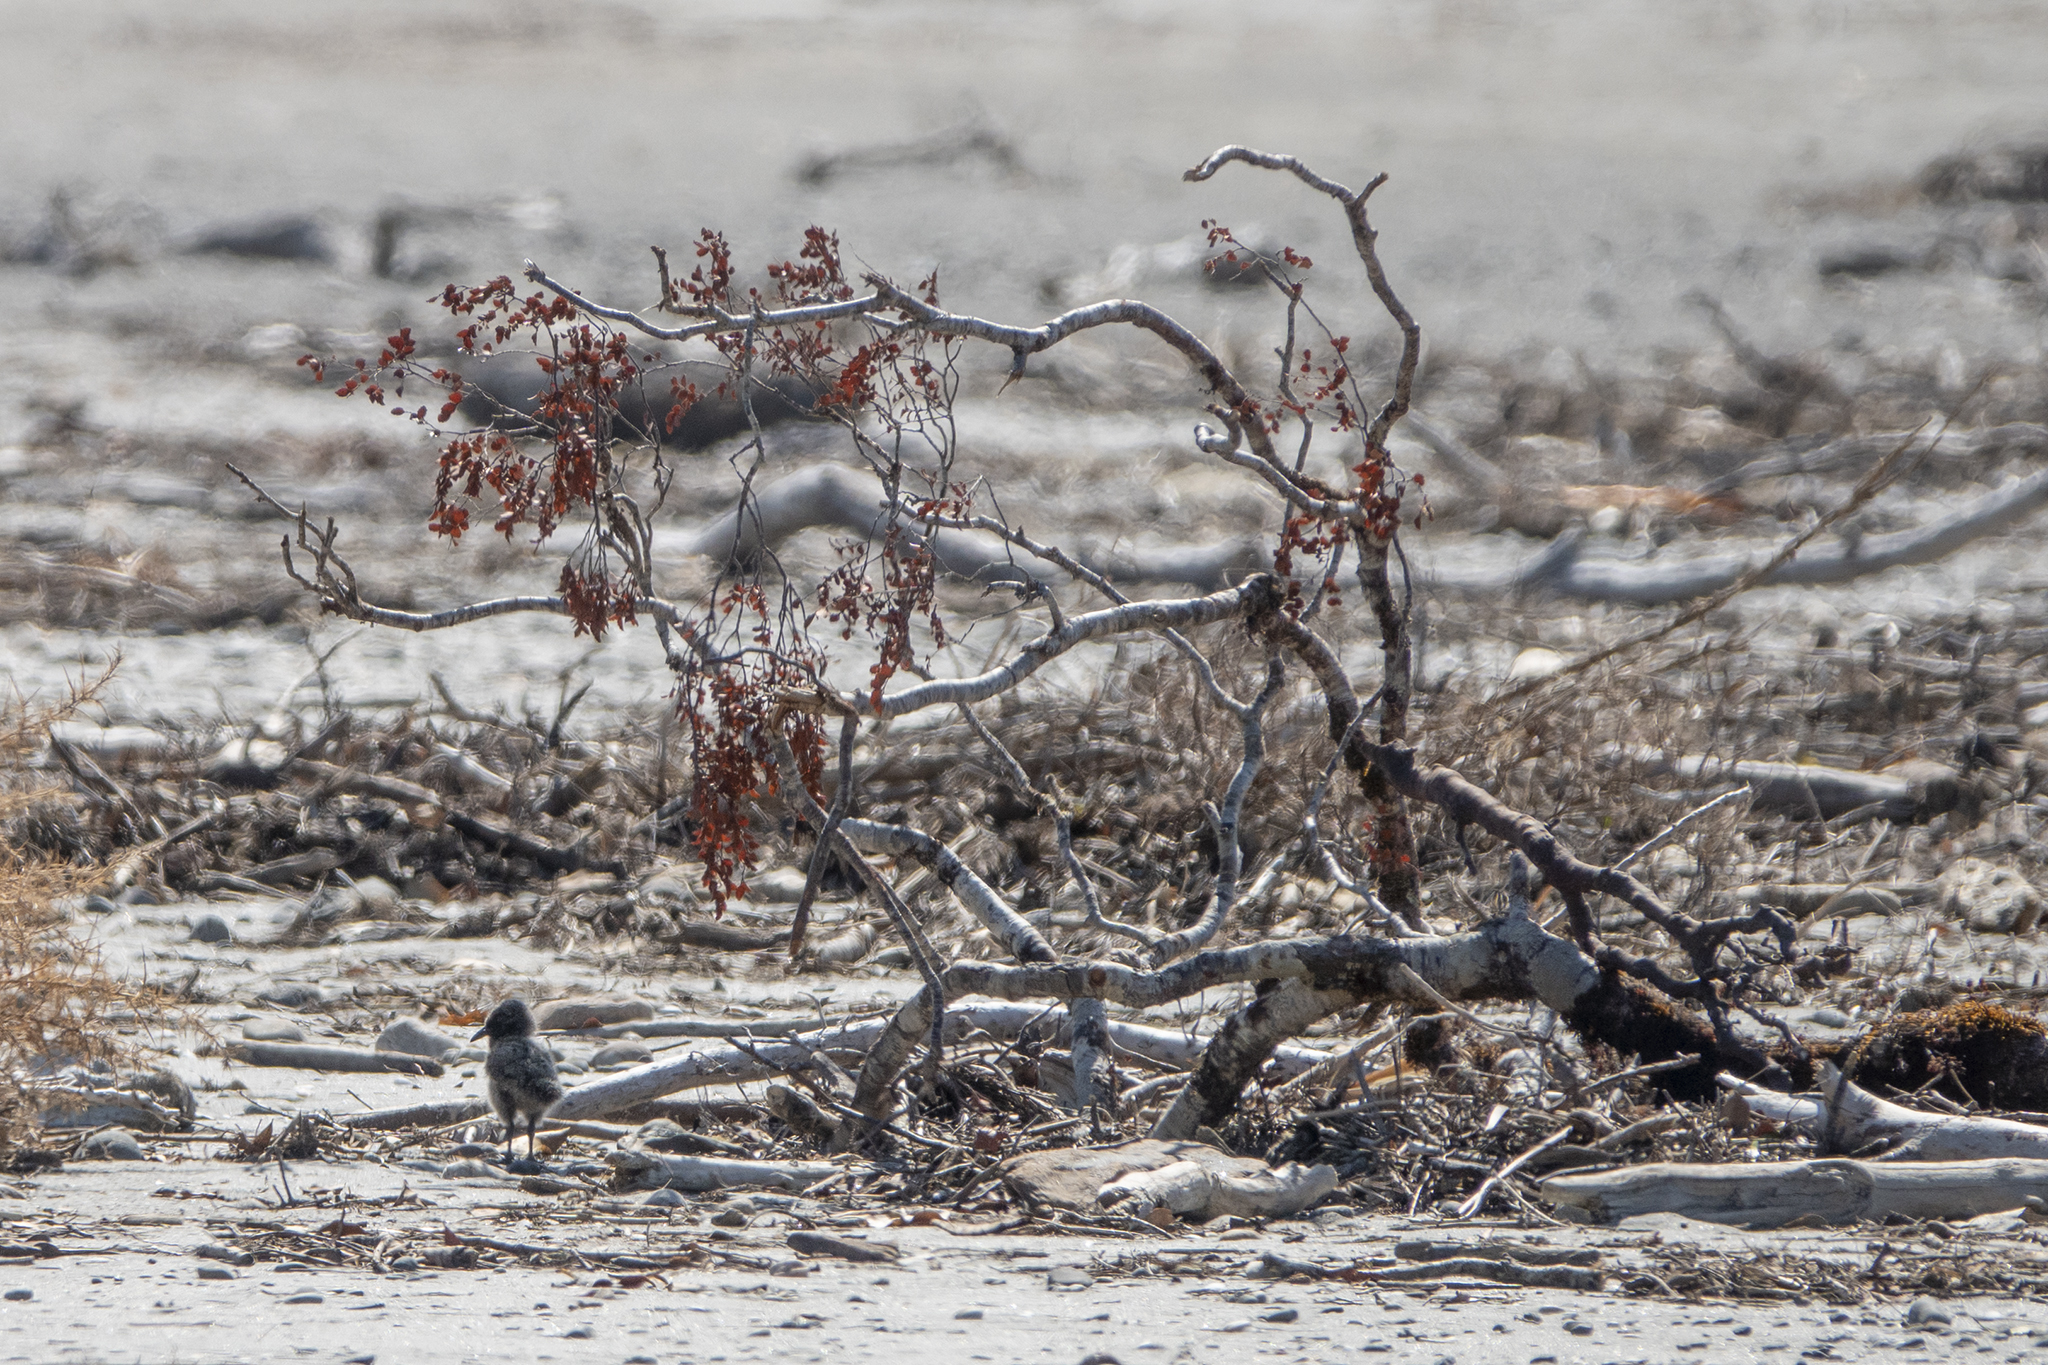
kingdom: Animalia
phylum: Chordata
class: Aves
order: Charadriiformes
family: Haematopodidae
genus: Haematopus
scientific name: Haematopus unicolor
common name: Variable oystercatcher
